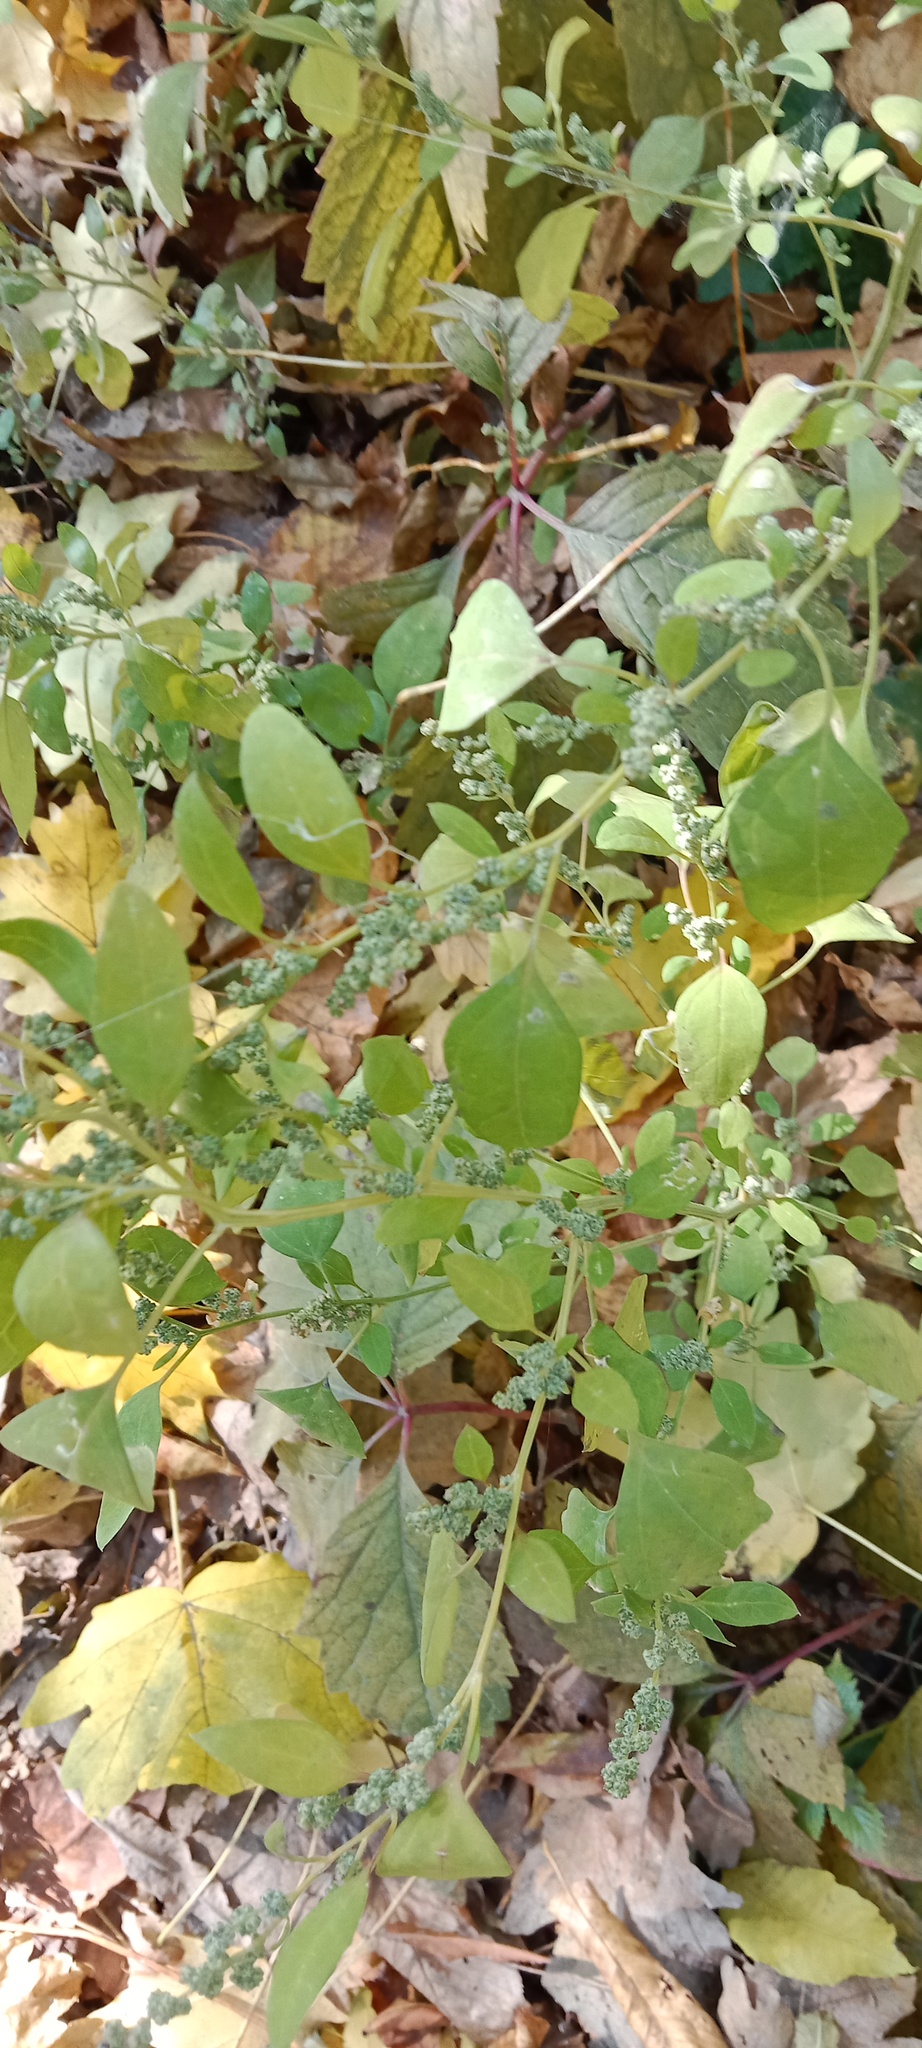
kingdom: Plantae
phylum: Tracheophyta
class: Magnoliopsida
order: Caryophyllales
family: Amaranthaceae
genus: Chenopodium
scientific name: Chenopodium album
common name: Fat-hen
